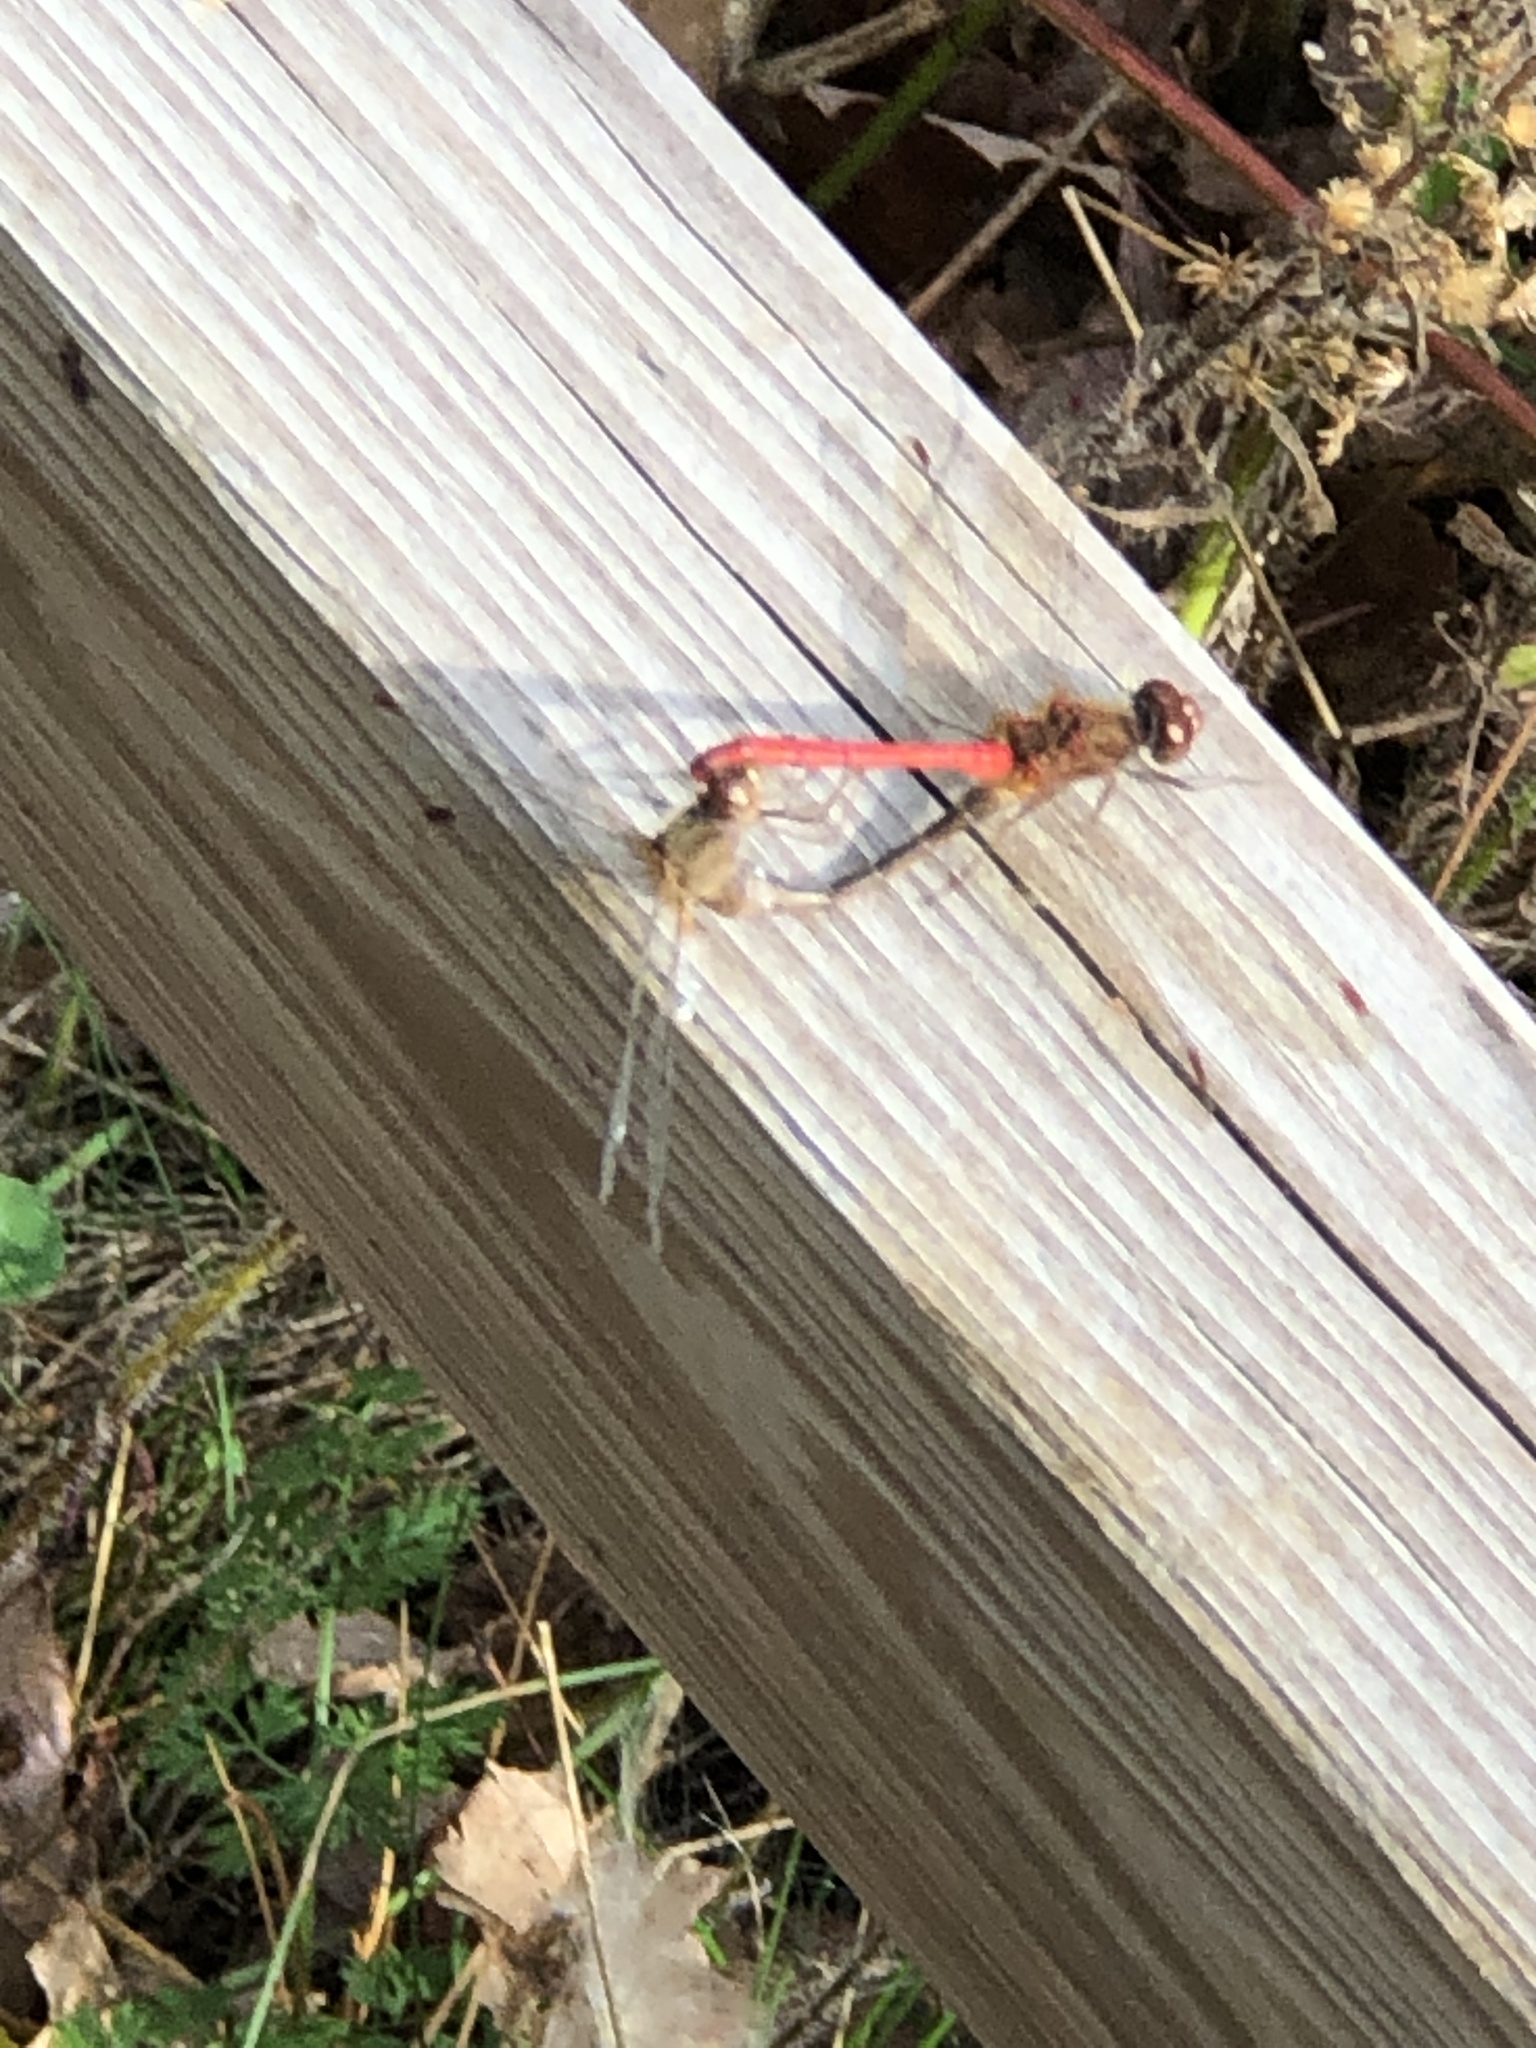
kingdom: Animalia
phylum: Arthropoda
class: Insecta
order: Odonata
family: Libellulidae
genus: Sympetrum
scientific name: Sympetrum vicinum
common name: Autumn meadowhawk
